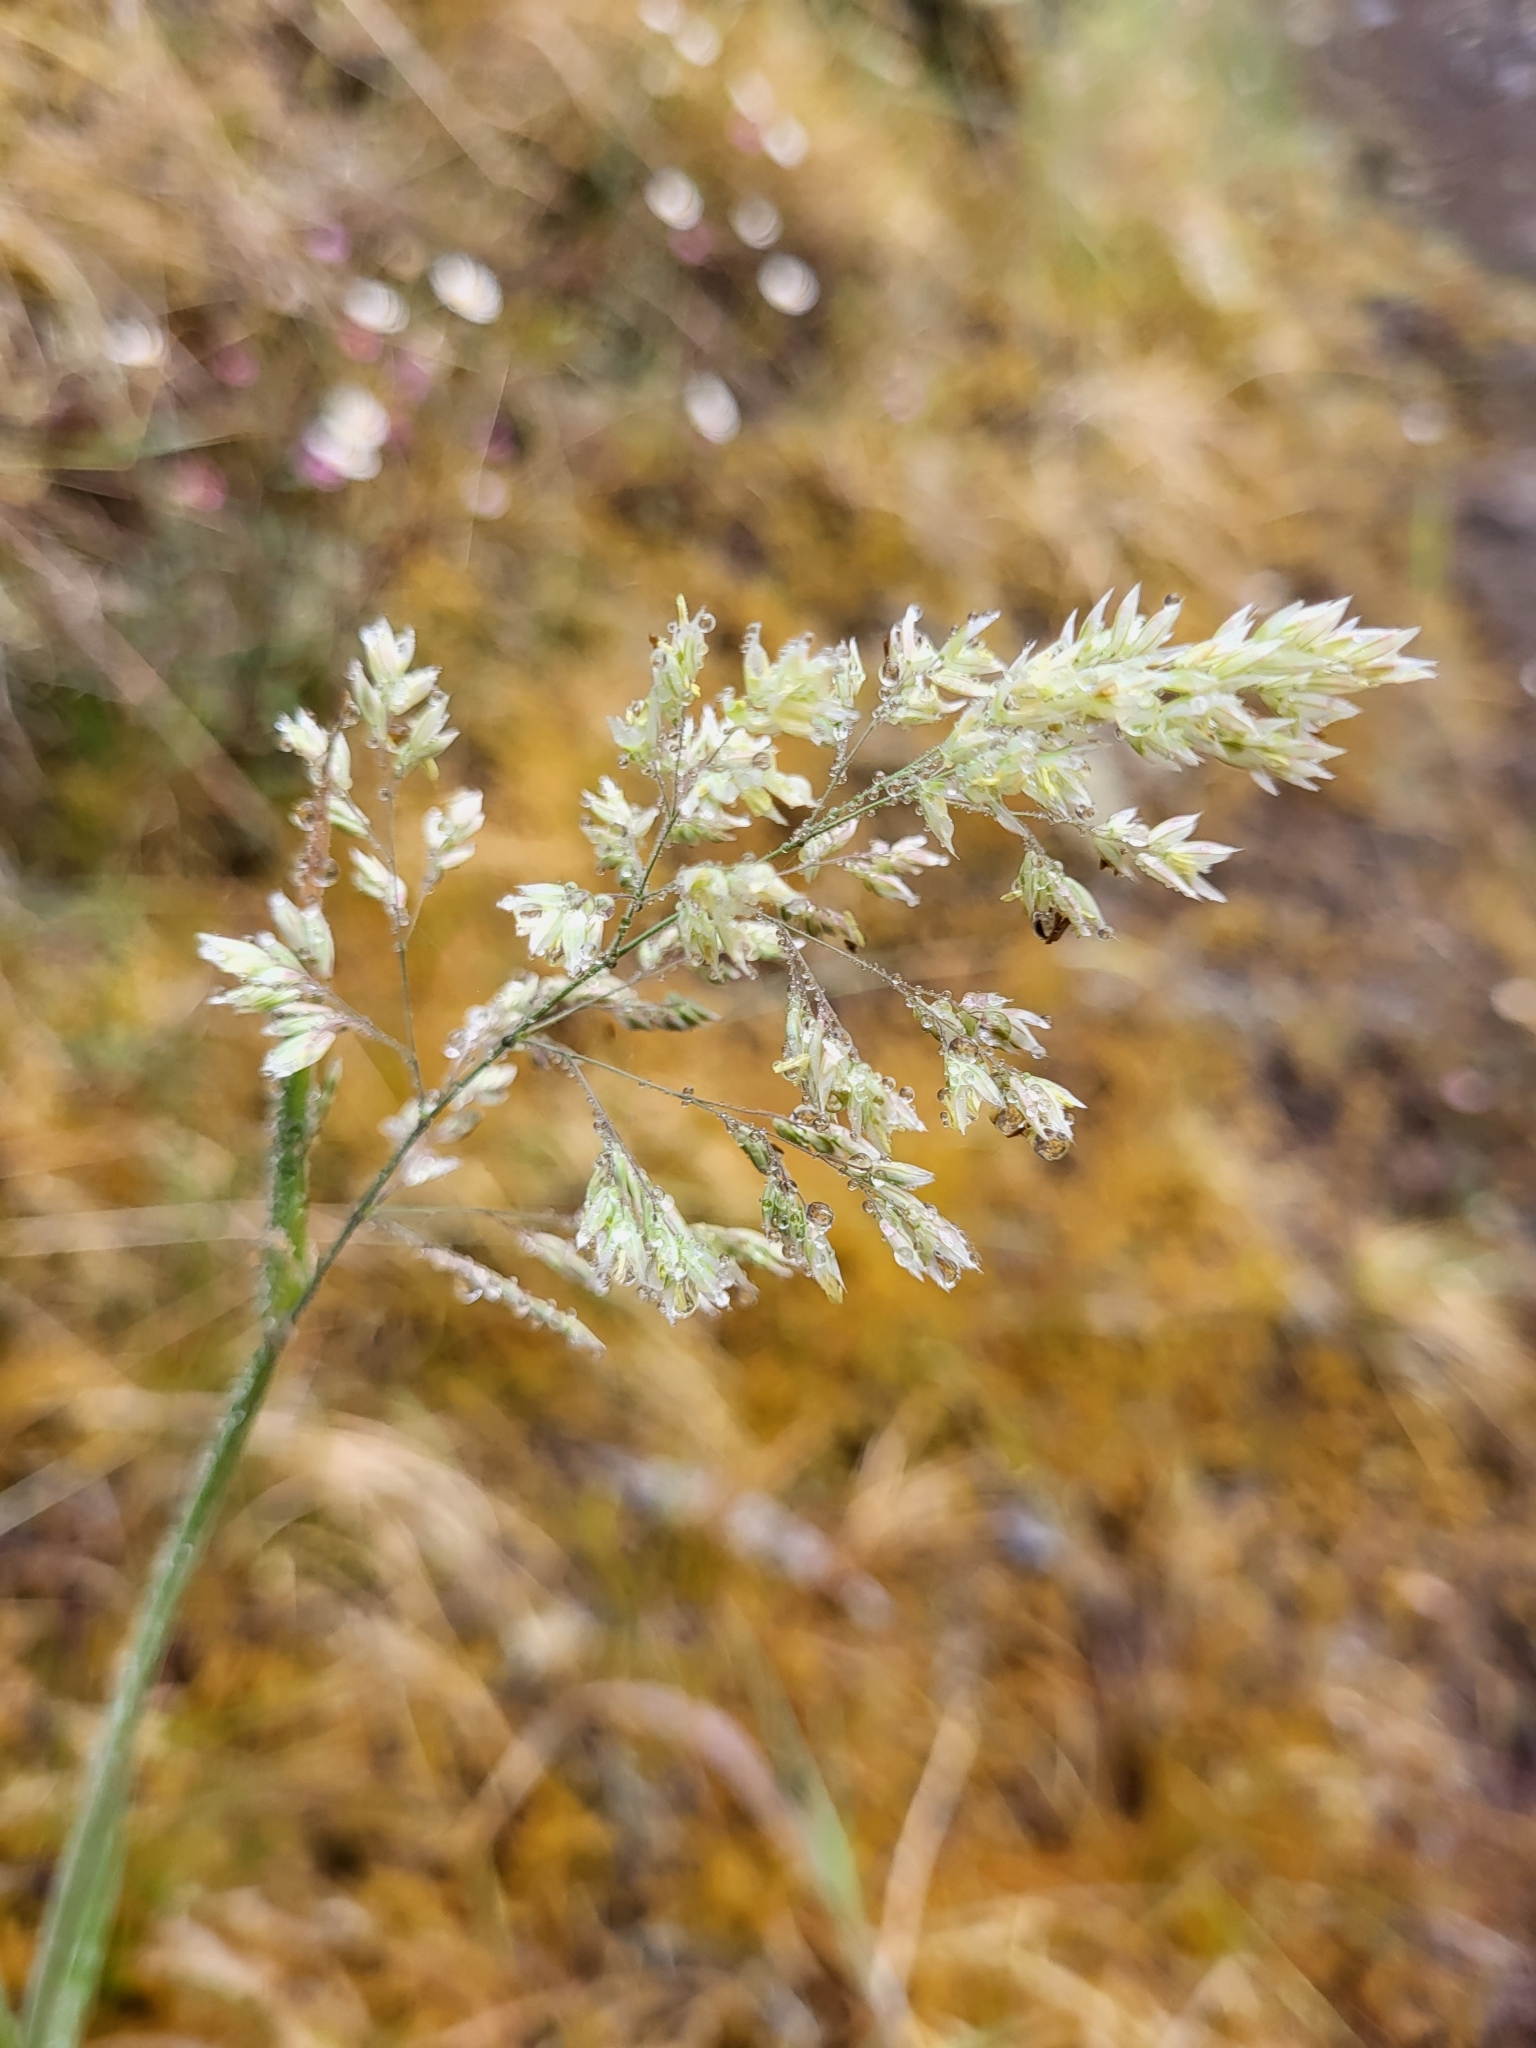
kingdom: Plantae
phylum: Tracheophyta
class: Liliopsida
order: Poales
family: Poaceae
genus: Holcus
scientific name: Holcus lanatus
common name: Yorkshire-fog
